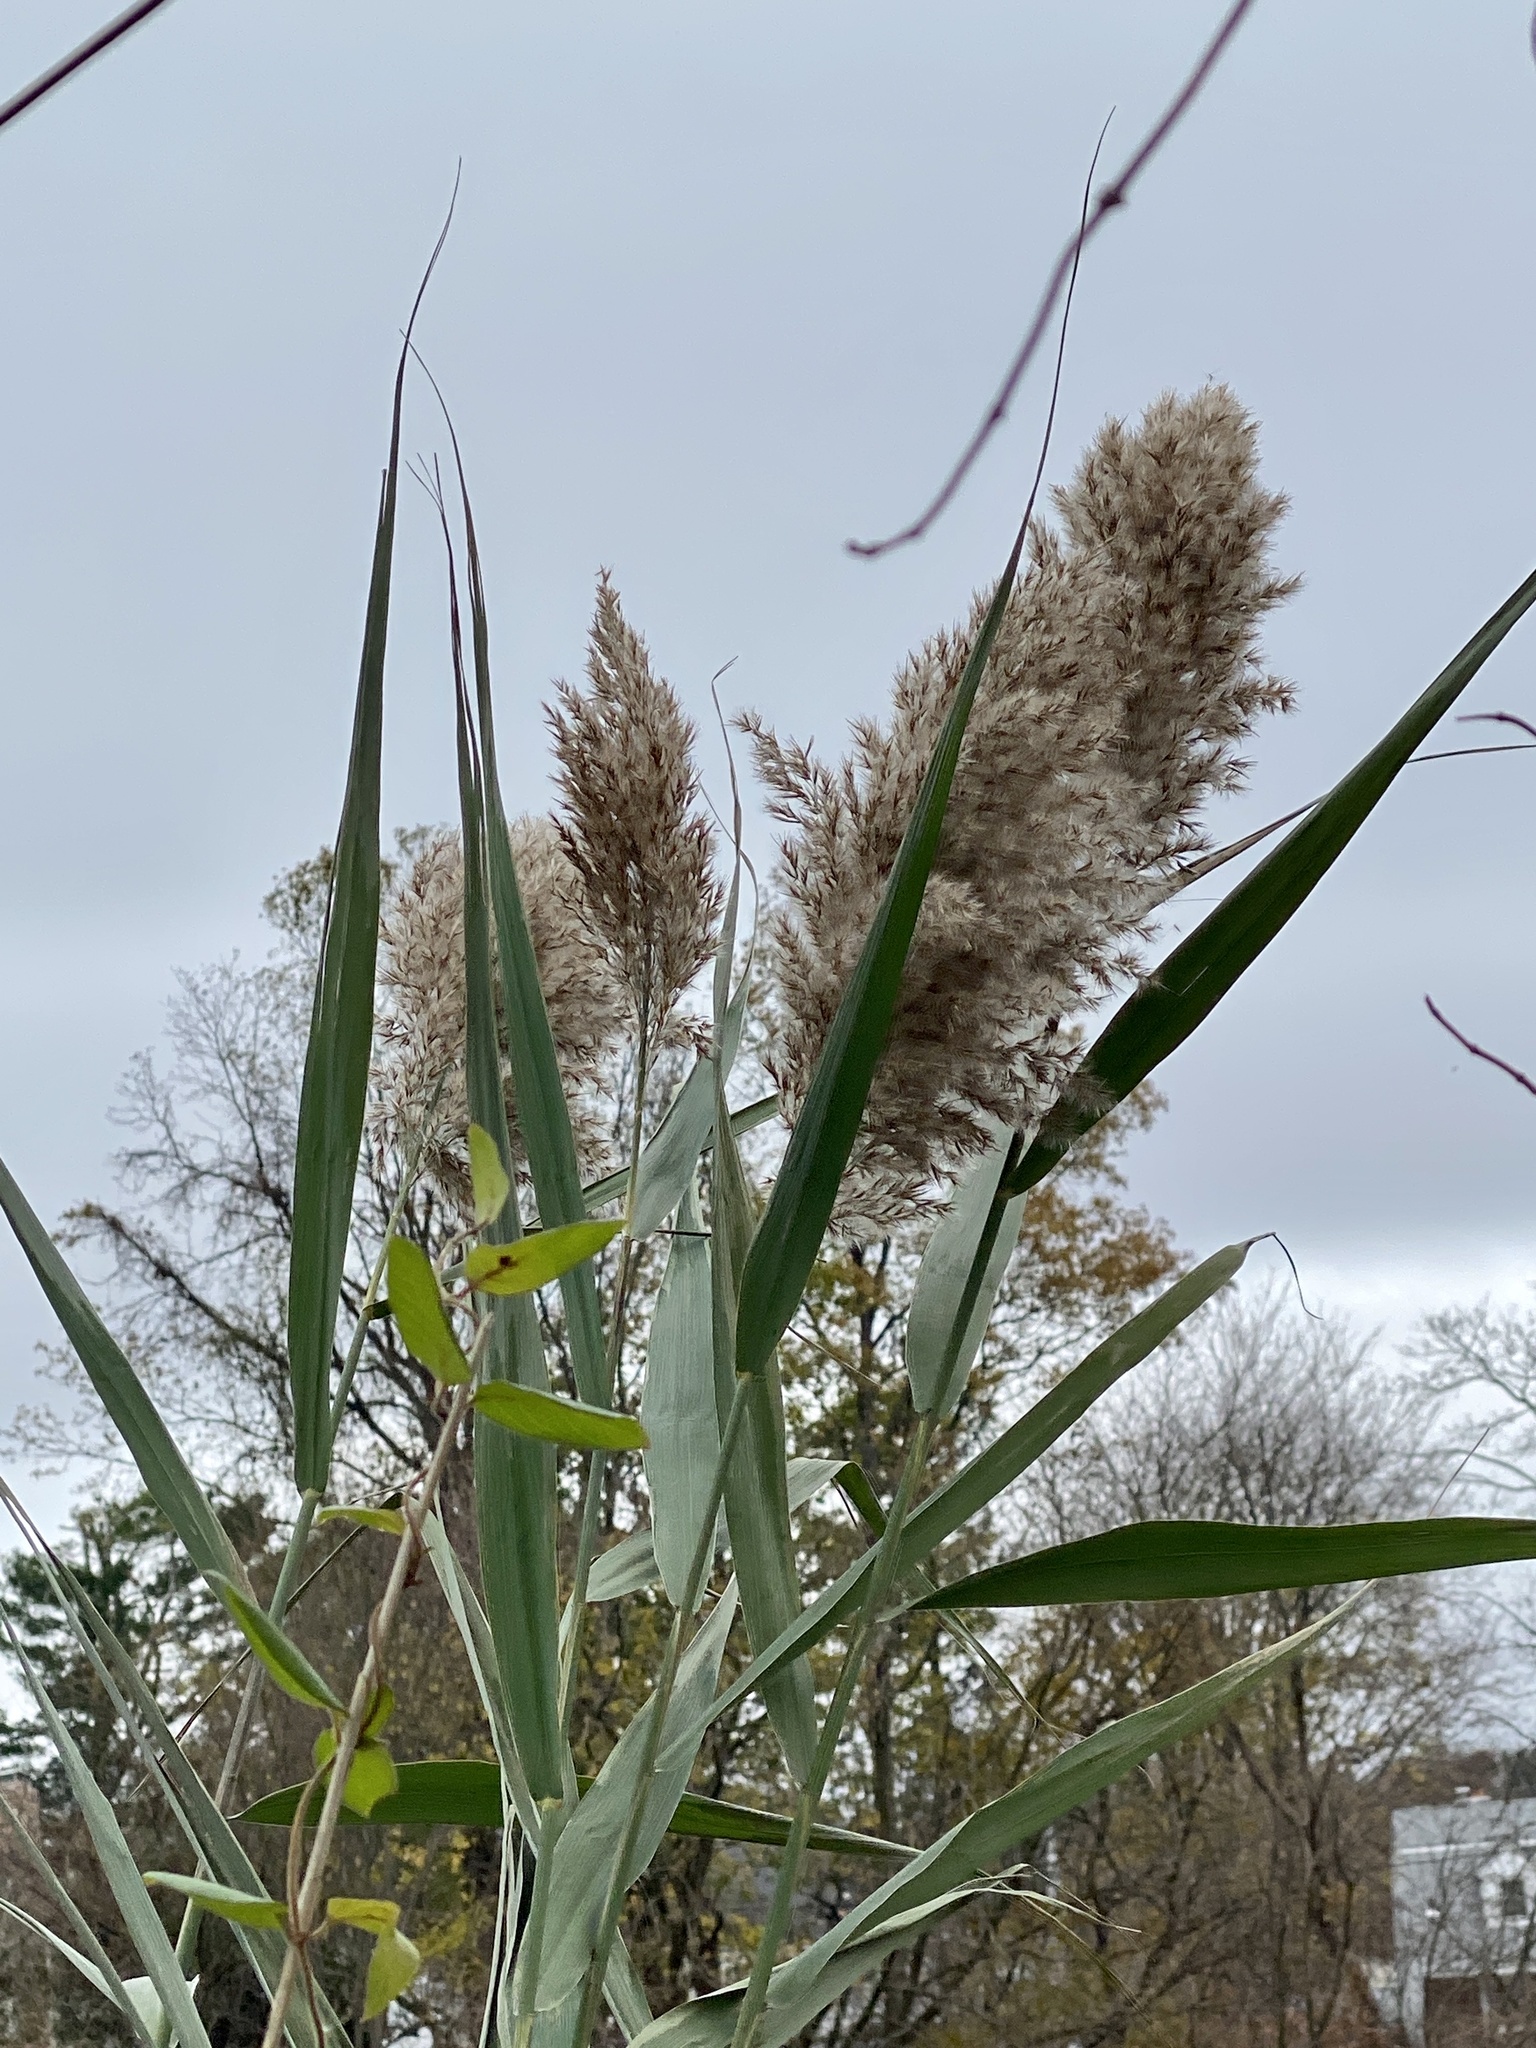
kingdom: Plantae
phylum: Tracheophyta
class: Liliopsida
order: Poales
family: Poaceae
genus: Phragmites
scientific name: Phragmites australis
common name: Common reed
